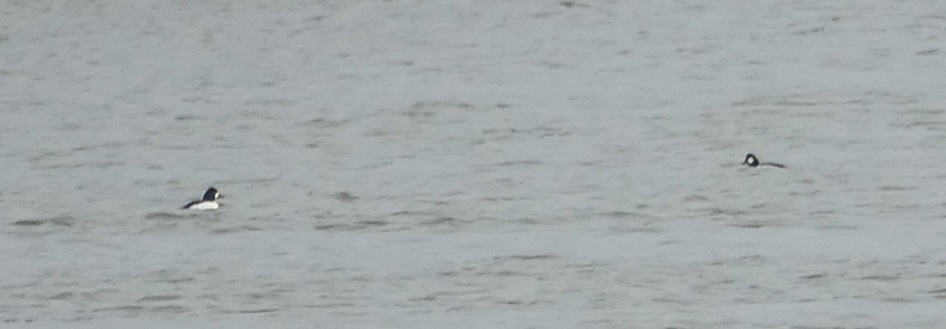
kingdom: Animalia
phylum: Chordata
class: Aves
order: Anseriformes
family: Anatidae
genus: Bucephala
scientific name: Bucephala clangula
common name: Common goldeneye
